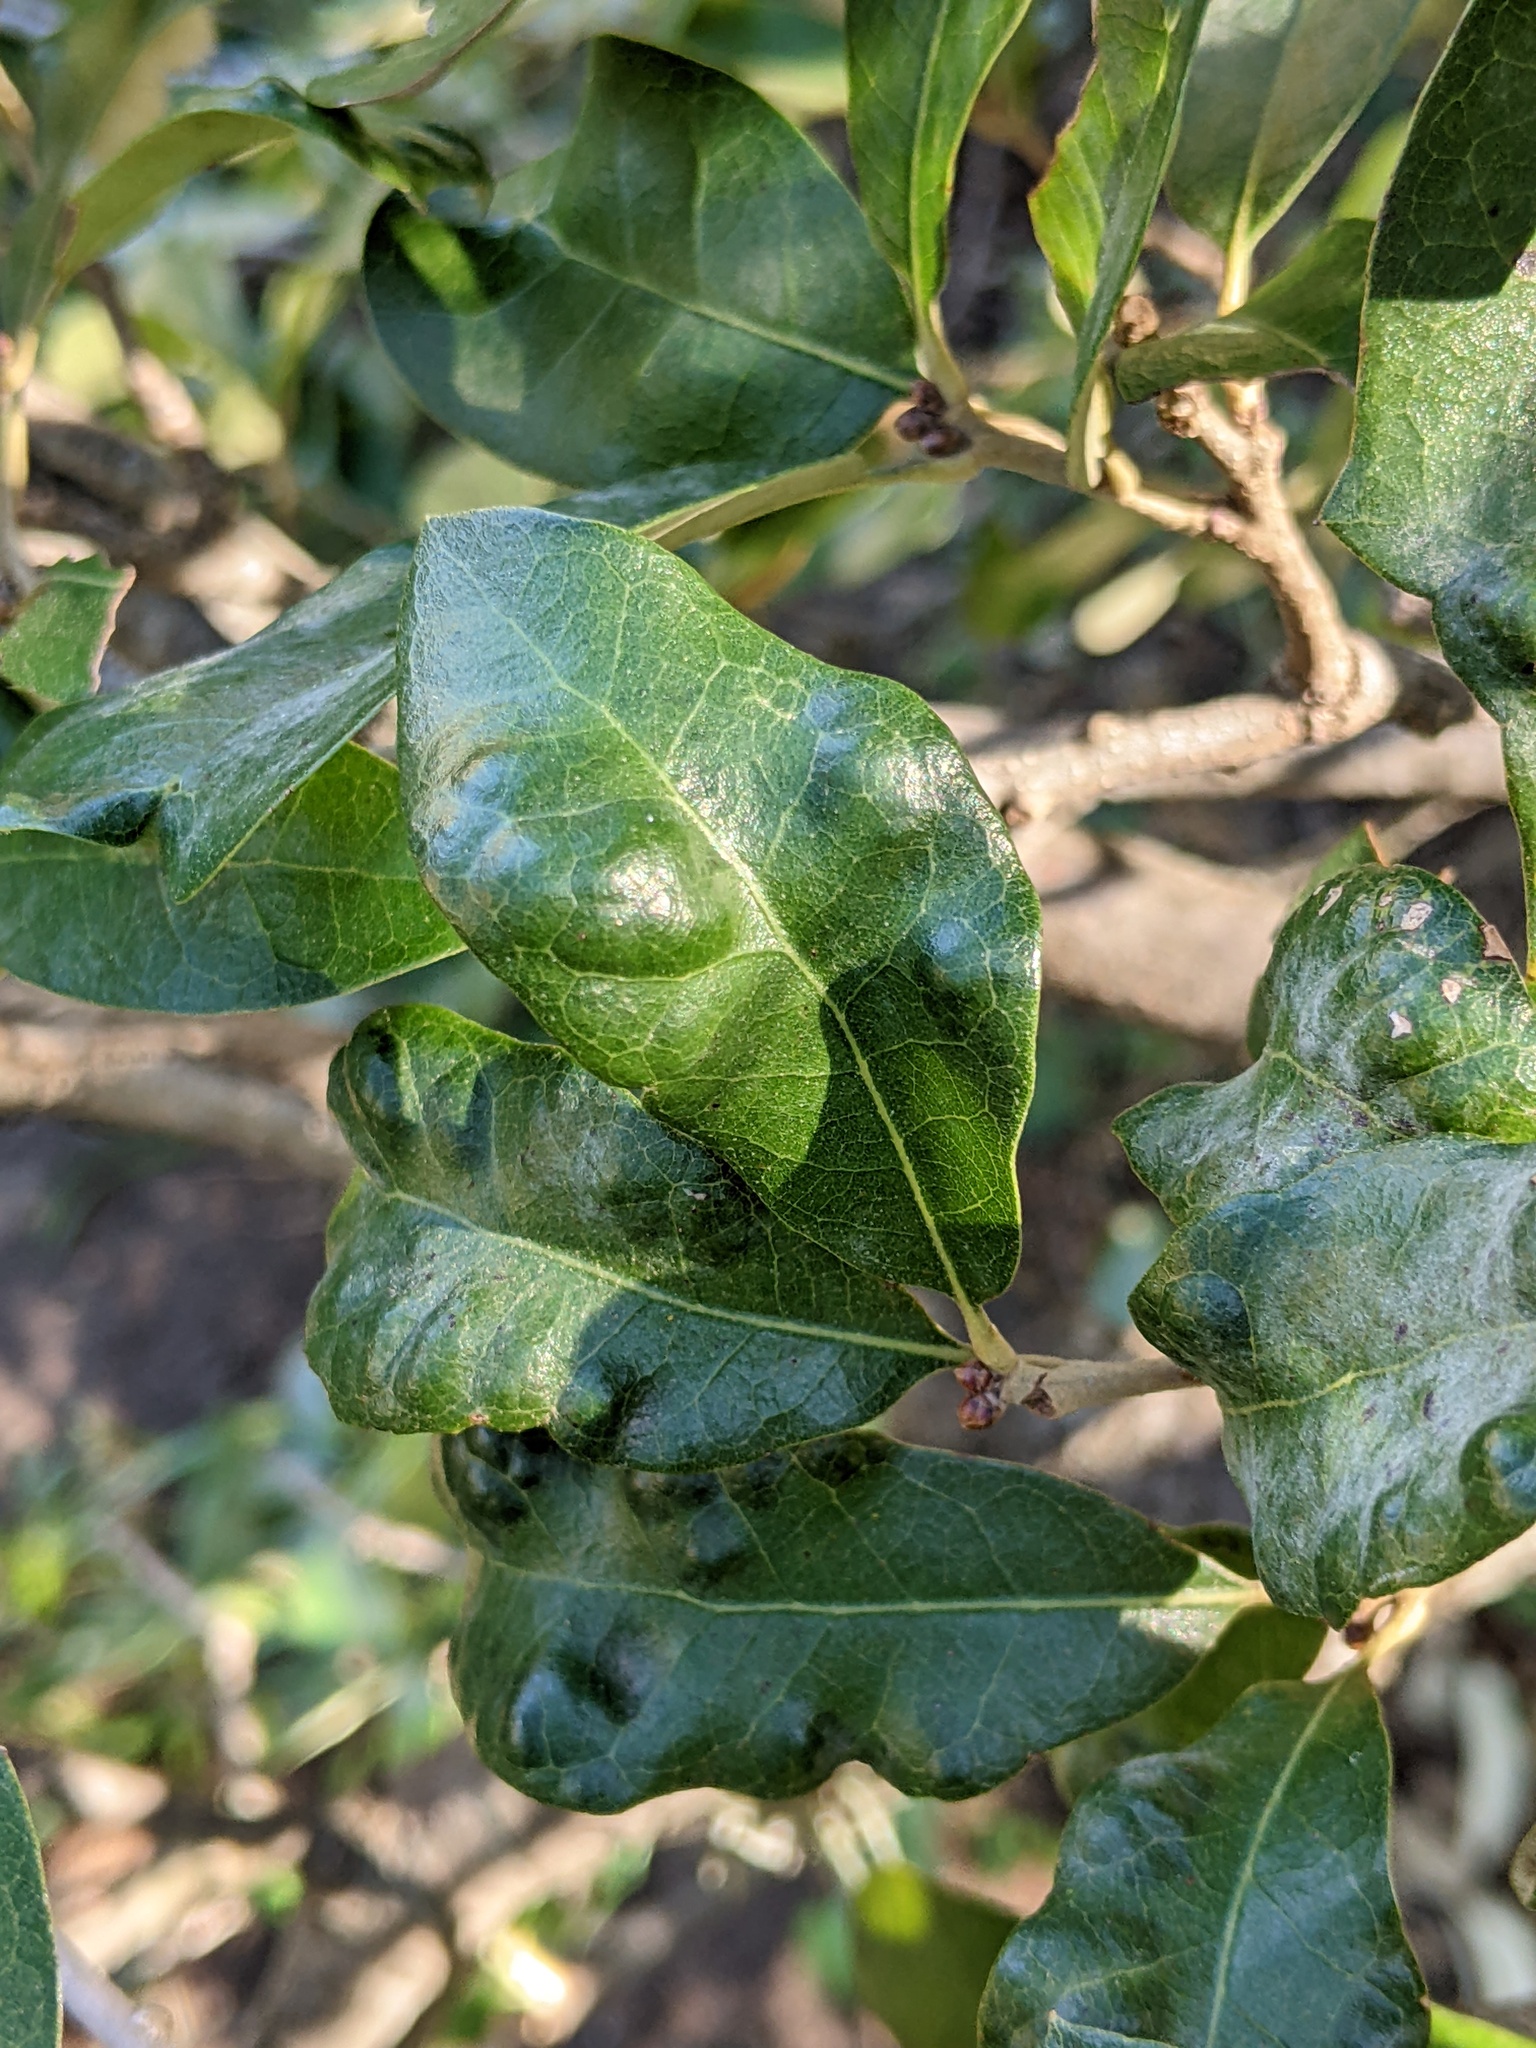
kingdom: Animalia
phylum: Arthropoda
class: Arachnida
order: Trombidiformes
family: Eriophyidae
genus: Aceria
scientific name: Aceria quercina
